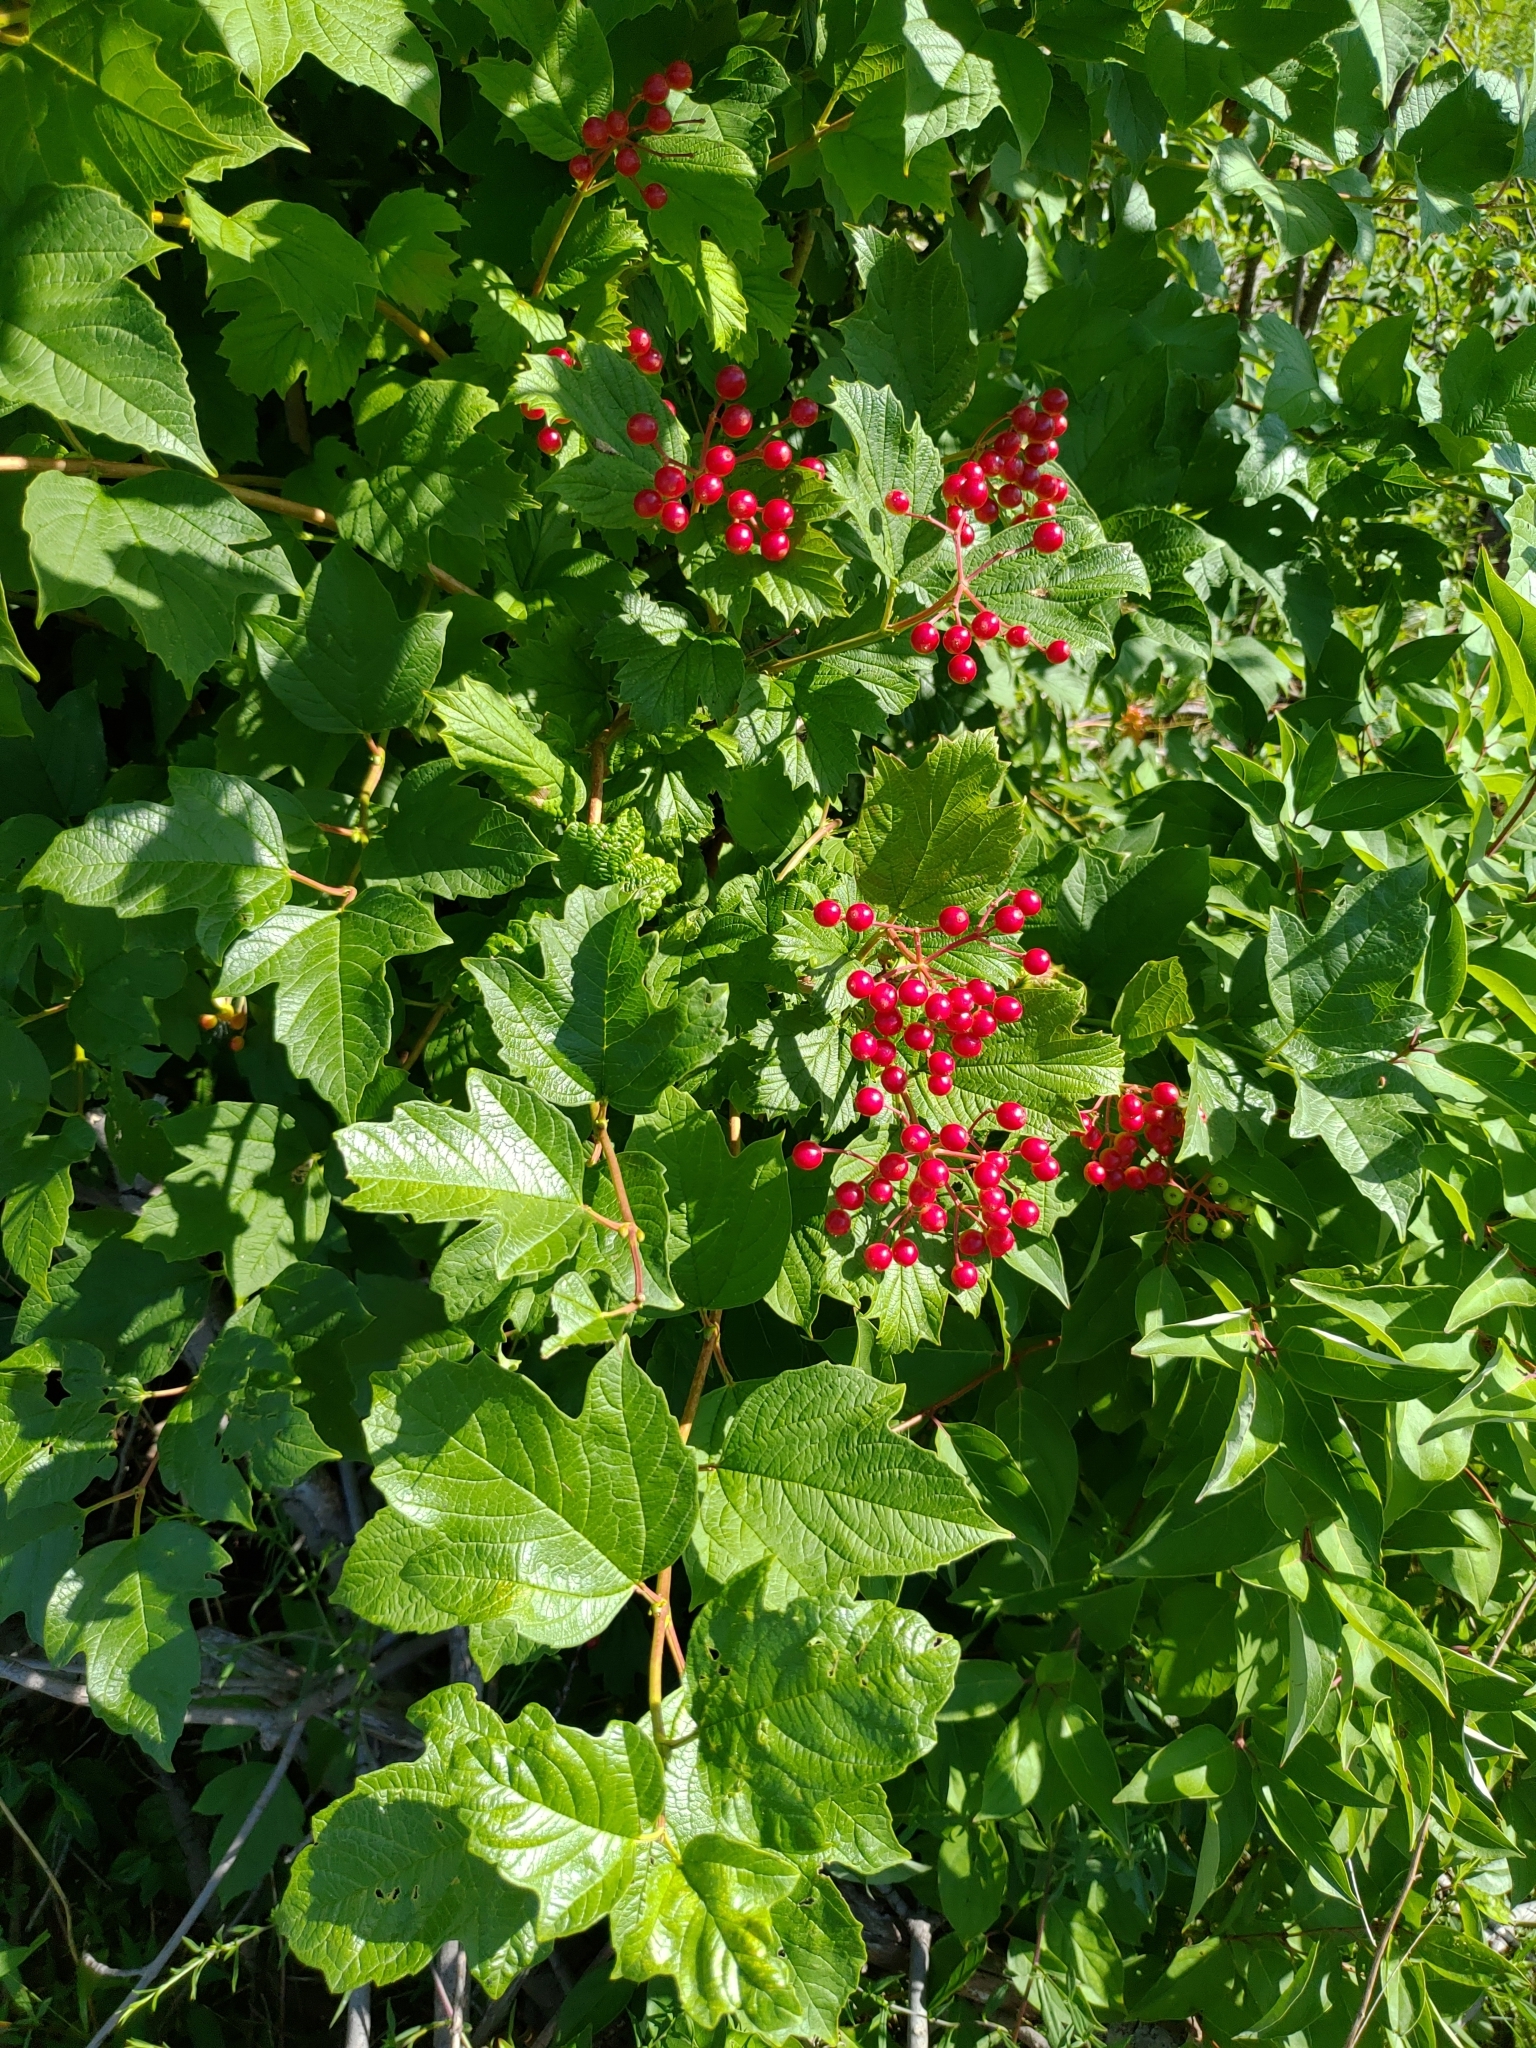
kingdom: Plantae
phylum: Tracheophyta
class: Magnoliopsida
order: Dipsacales
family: Viburnaceae
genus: Viburnum
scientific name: Viburnum opulus
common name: Guelder-rose
